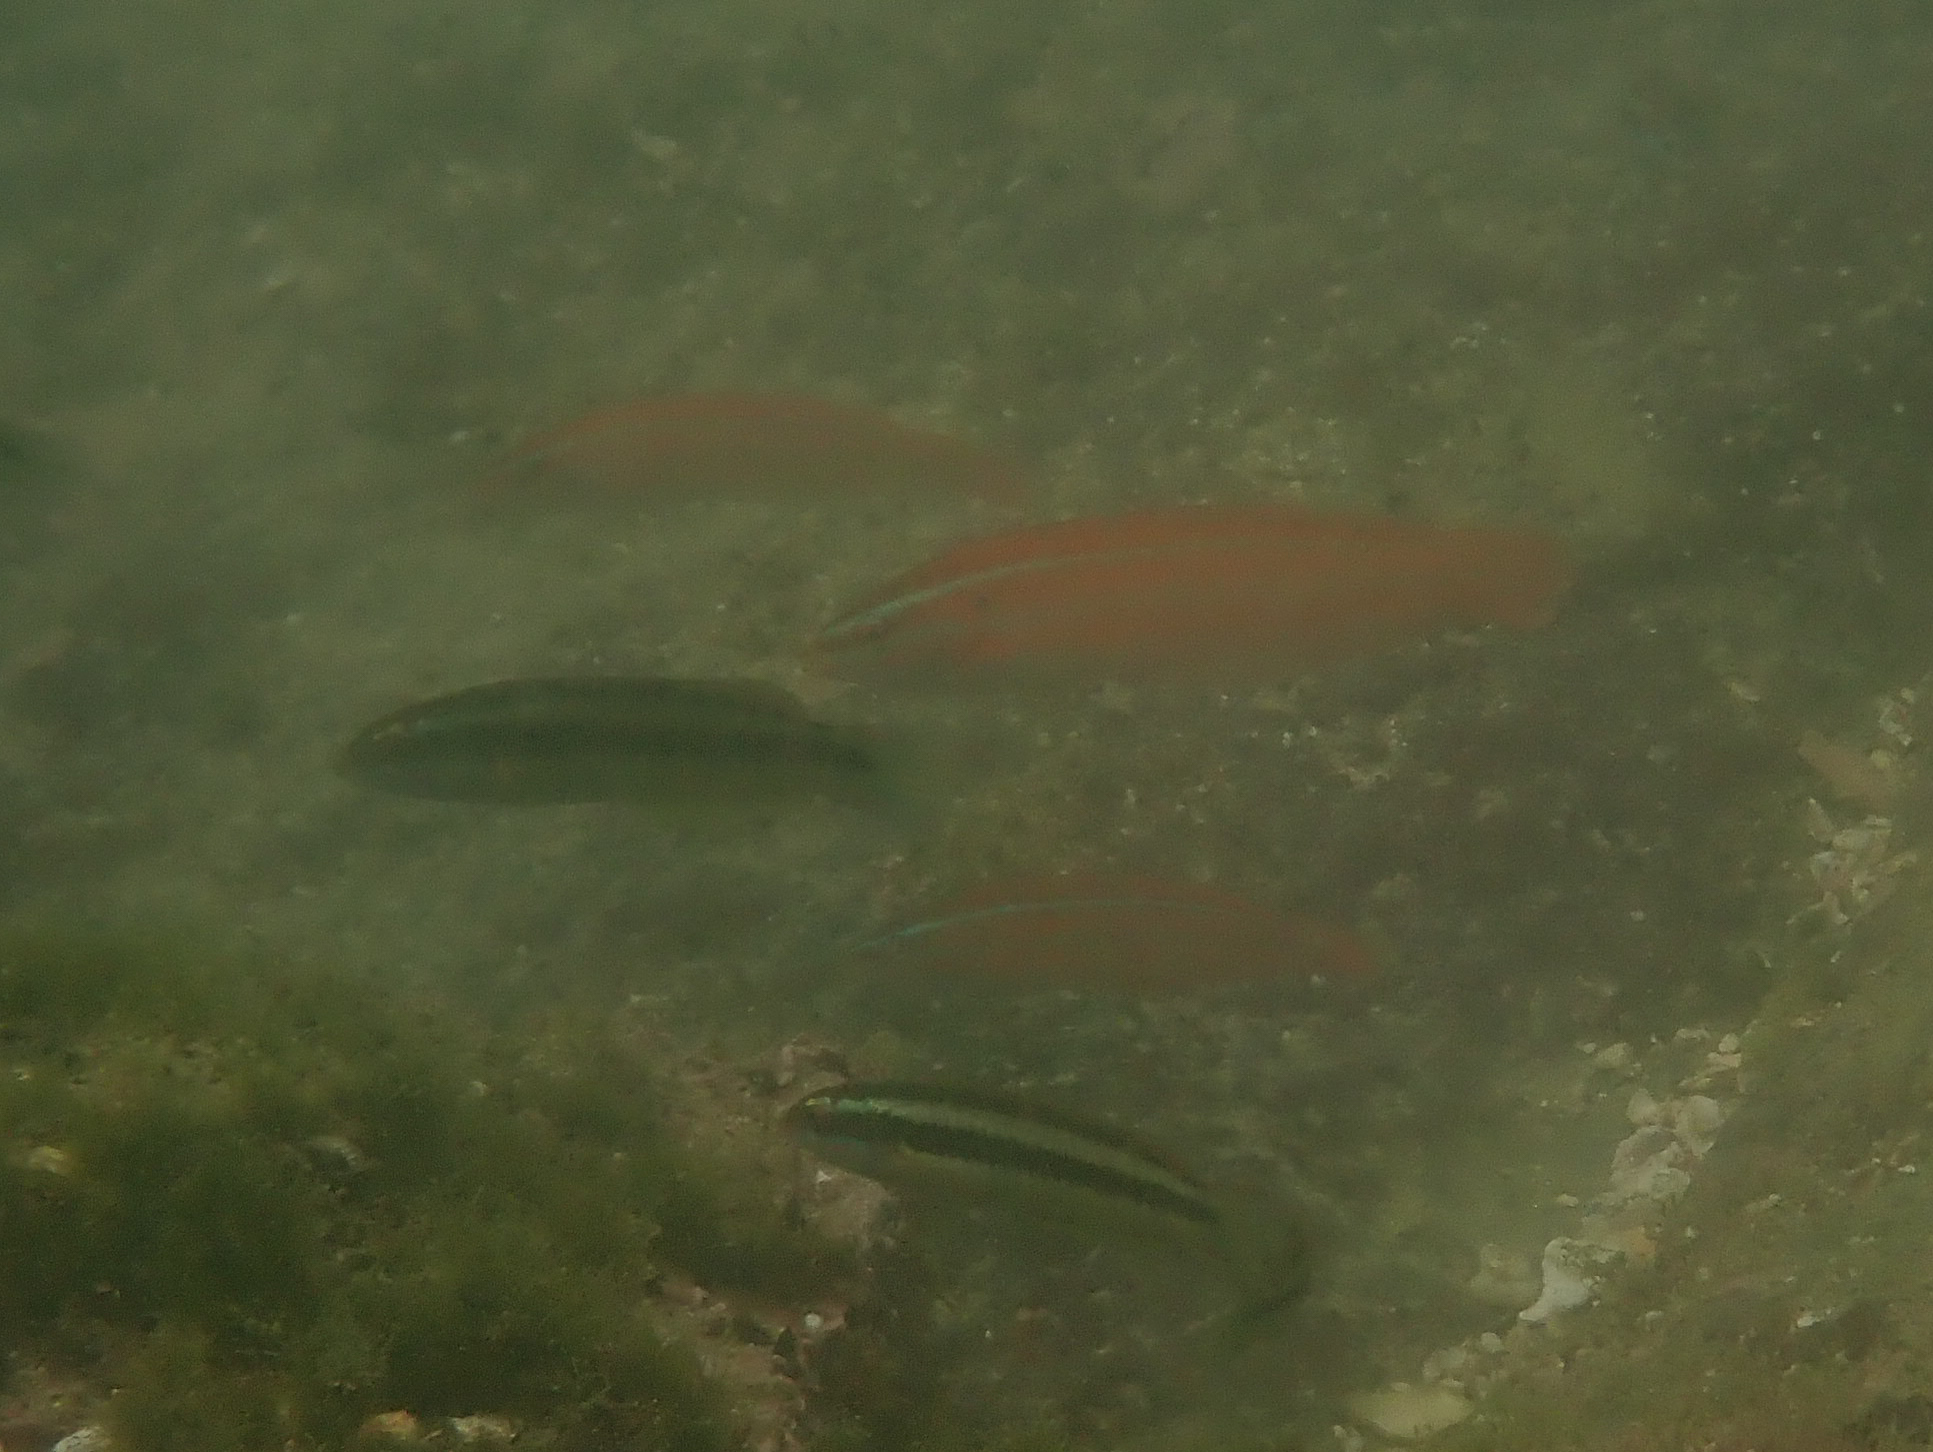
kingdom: Animalia
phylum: Chordata
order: Perciformes
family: Labridae
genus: Coris
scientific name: Coris atlantica
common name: Rainbow wrasse
